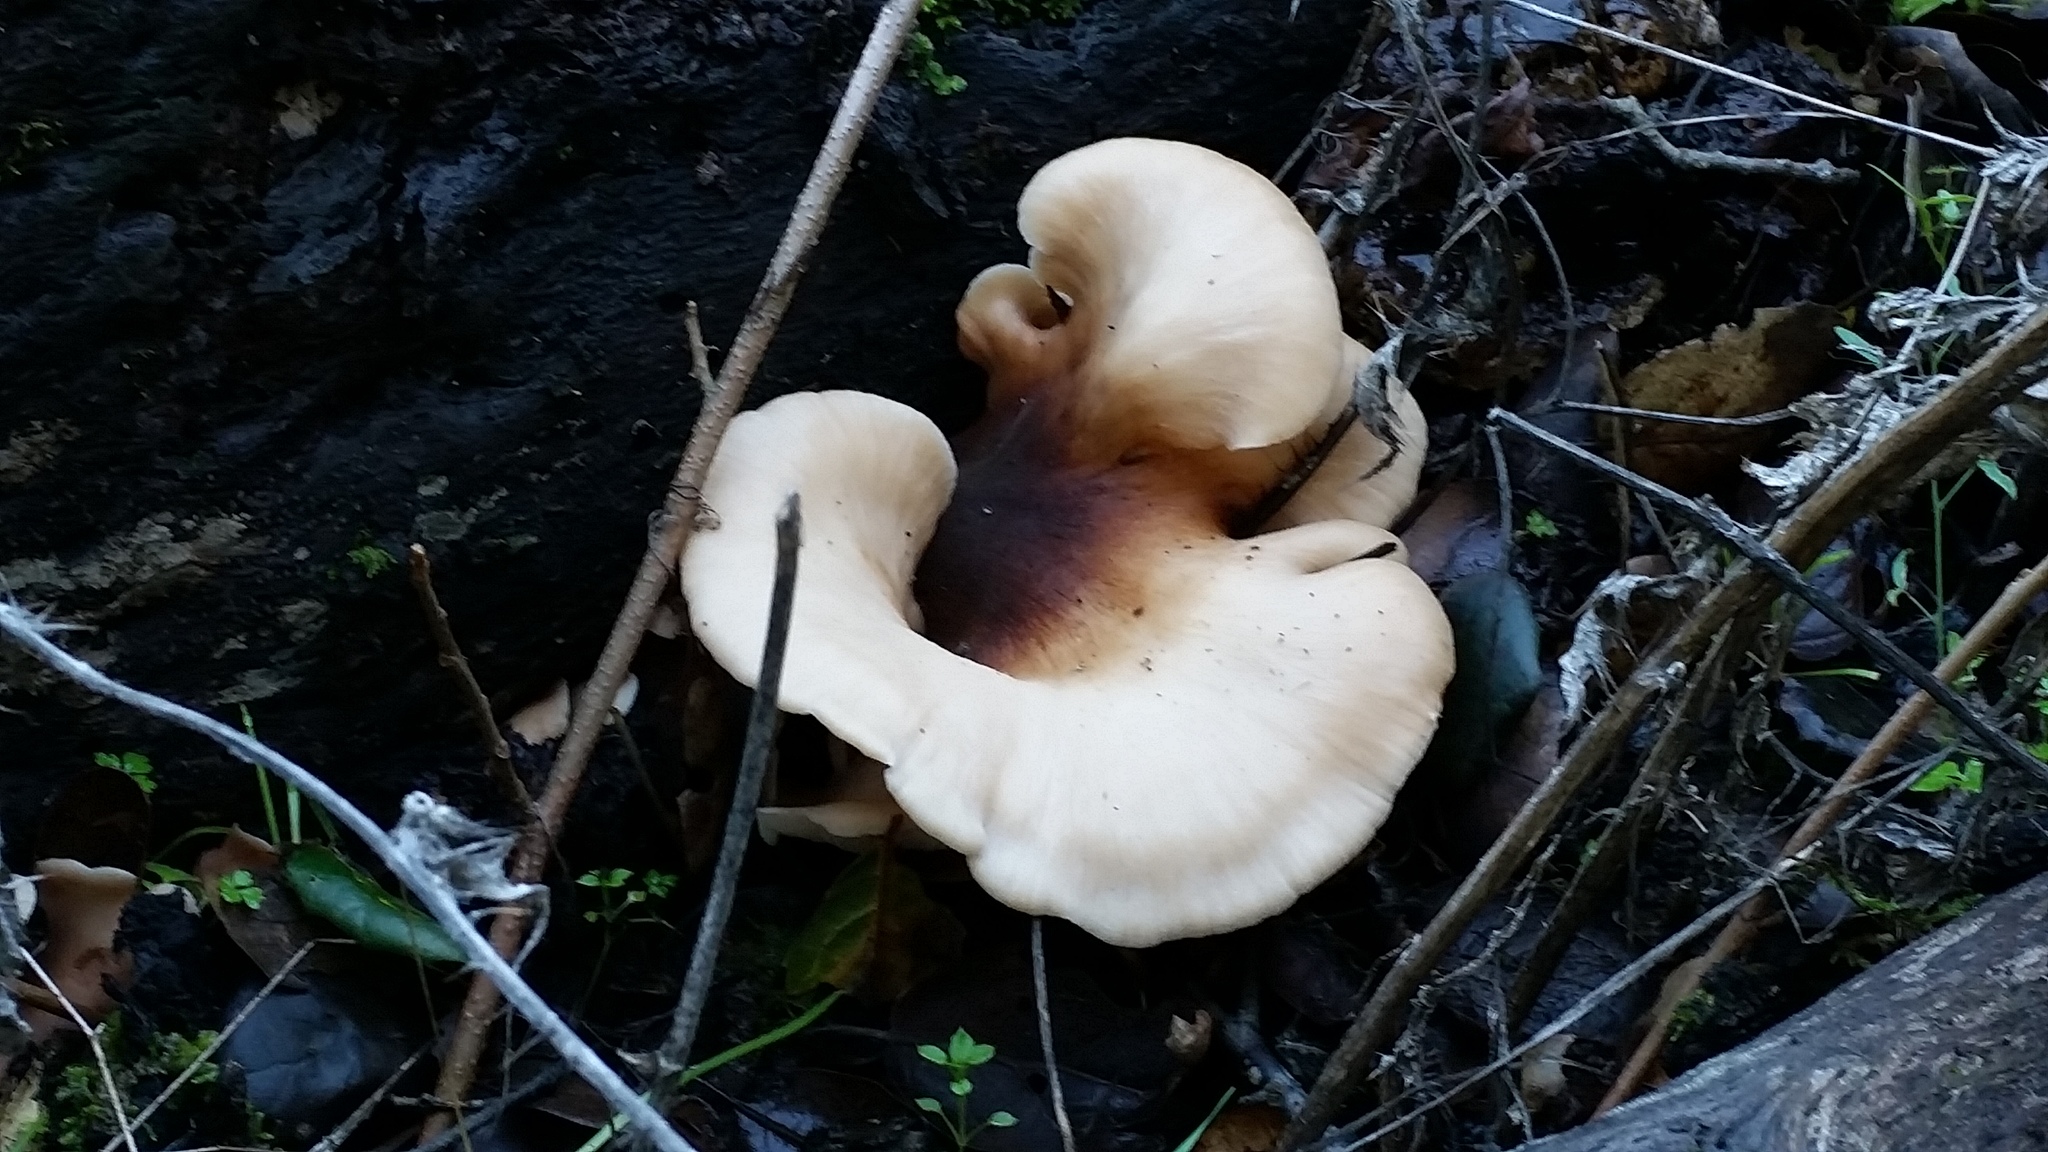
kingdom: Fungi
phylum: Basidiomycota
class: Agaricomycetes
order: Russulales
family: Auriscalpiaceae
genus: Lentinellus
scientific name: Lentinellus ursinus
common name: Bear lentinus
